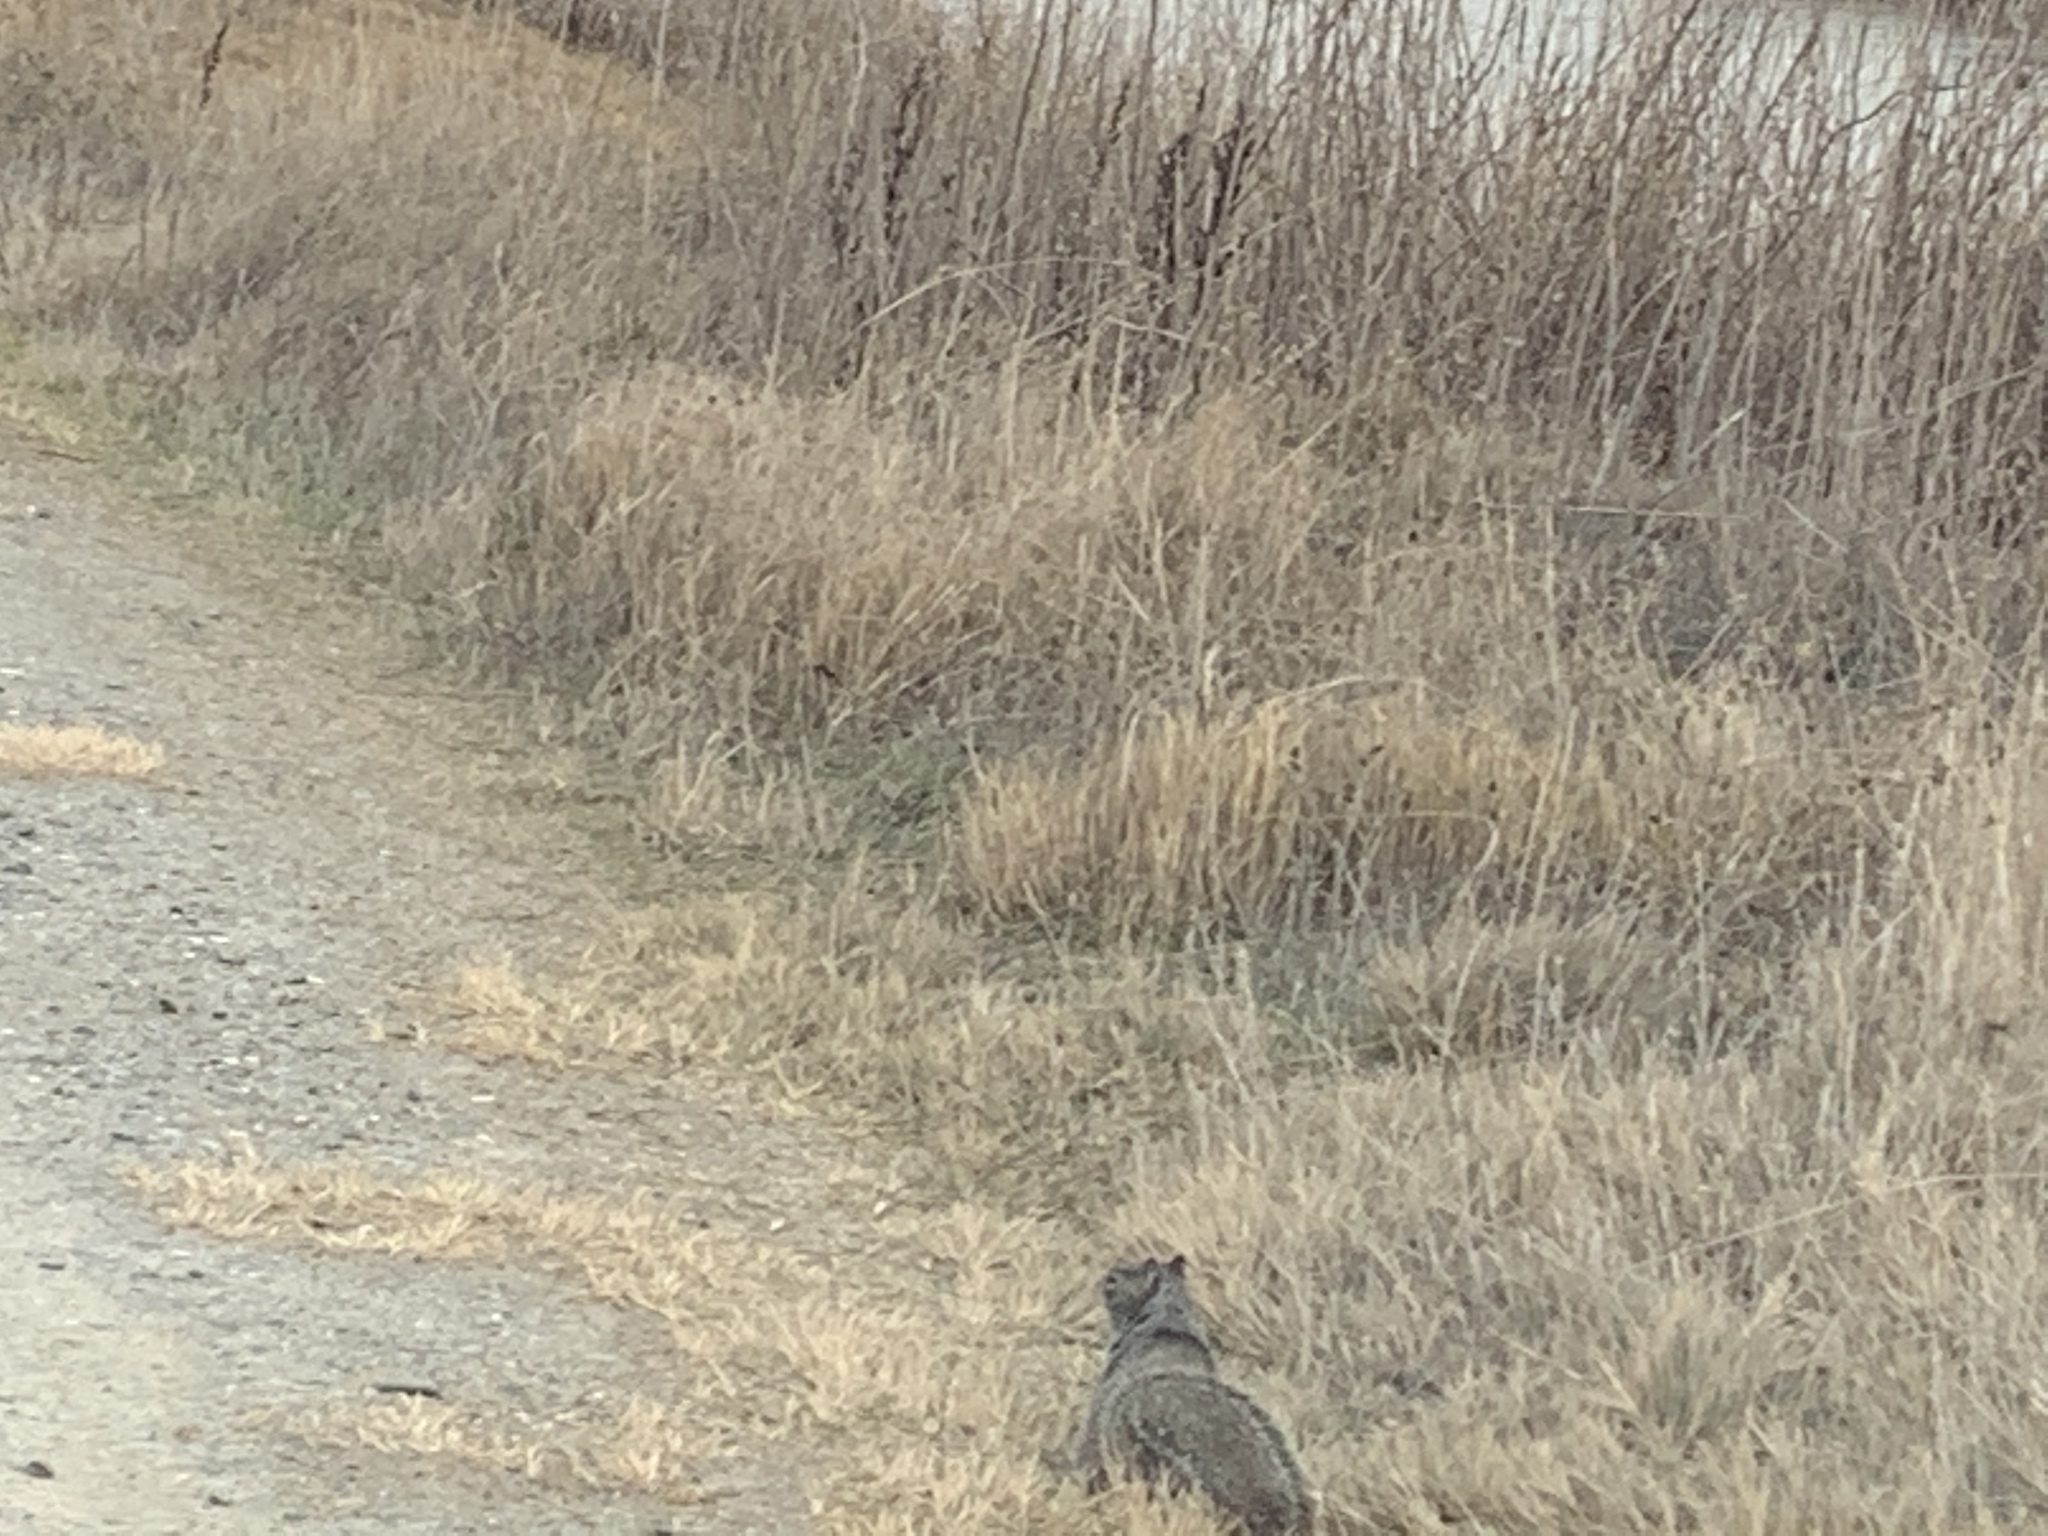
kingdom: Animalia
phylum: Chordata
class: Mammalia
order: Rodentia
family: Sciuridae
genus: Otospermophilus
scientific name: Otospermophilus beecheyi
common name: California ground squirrel
